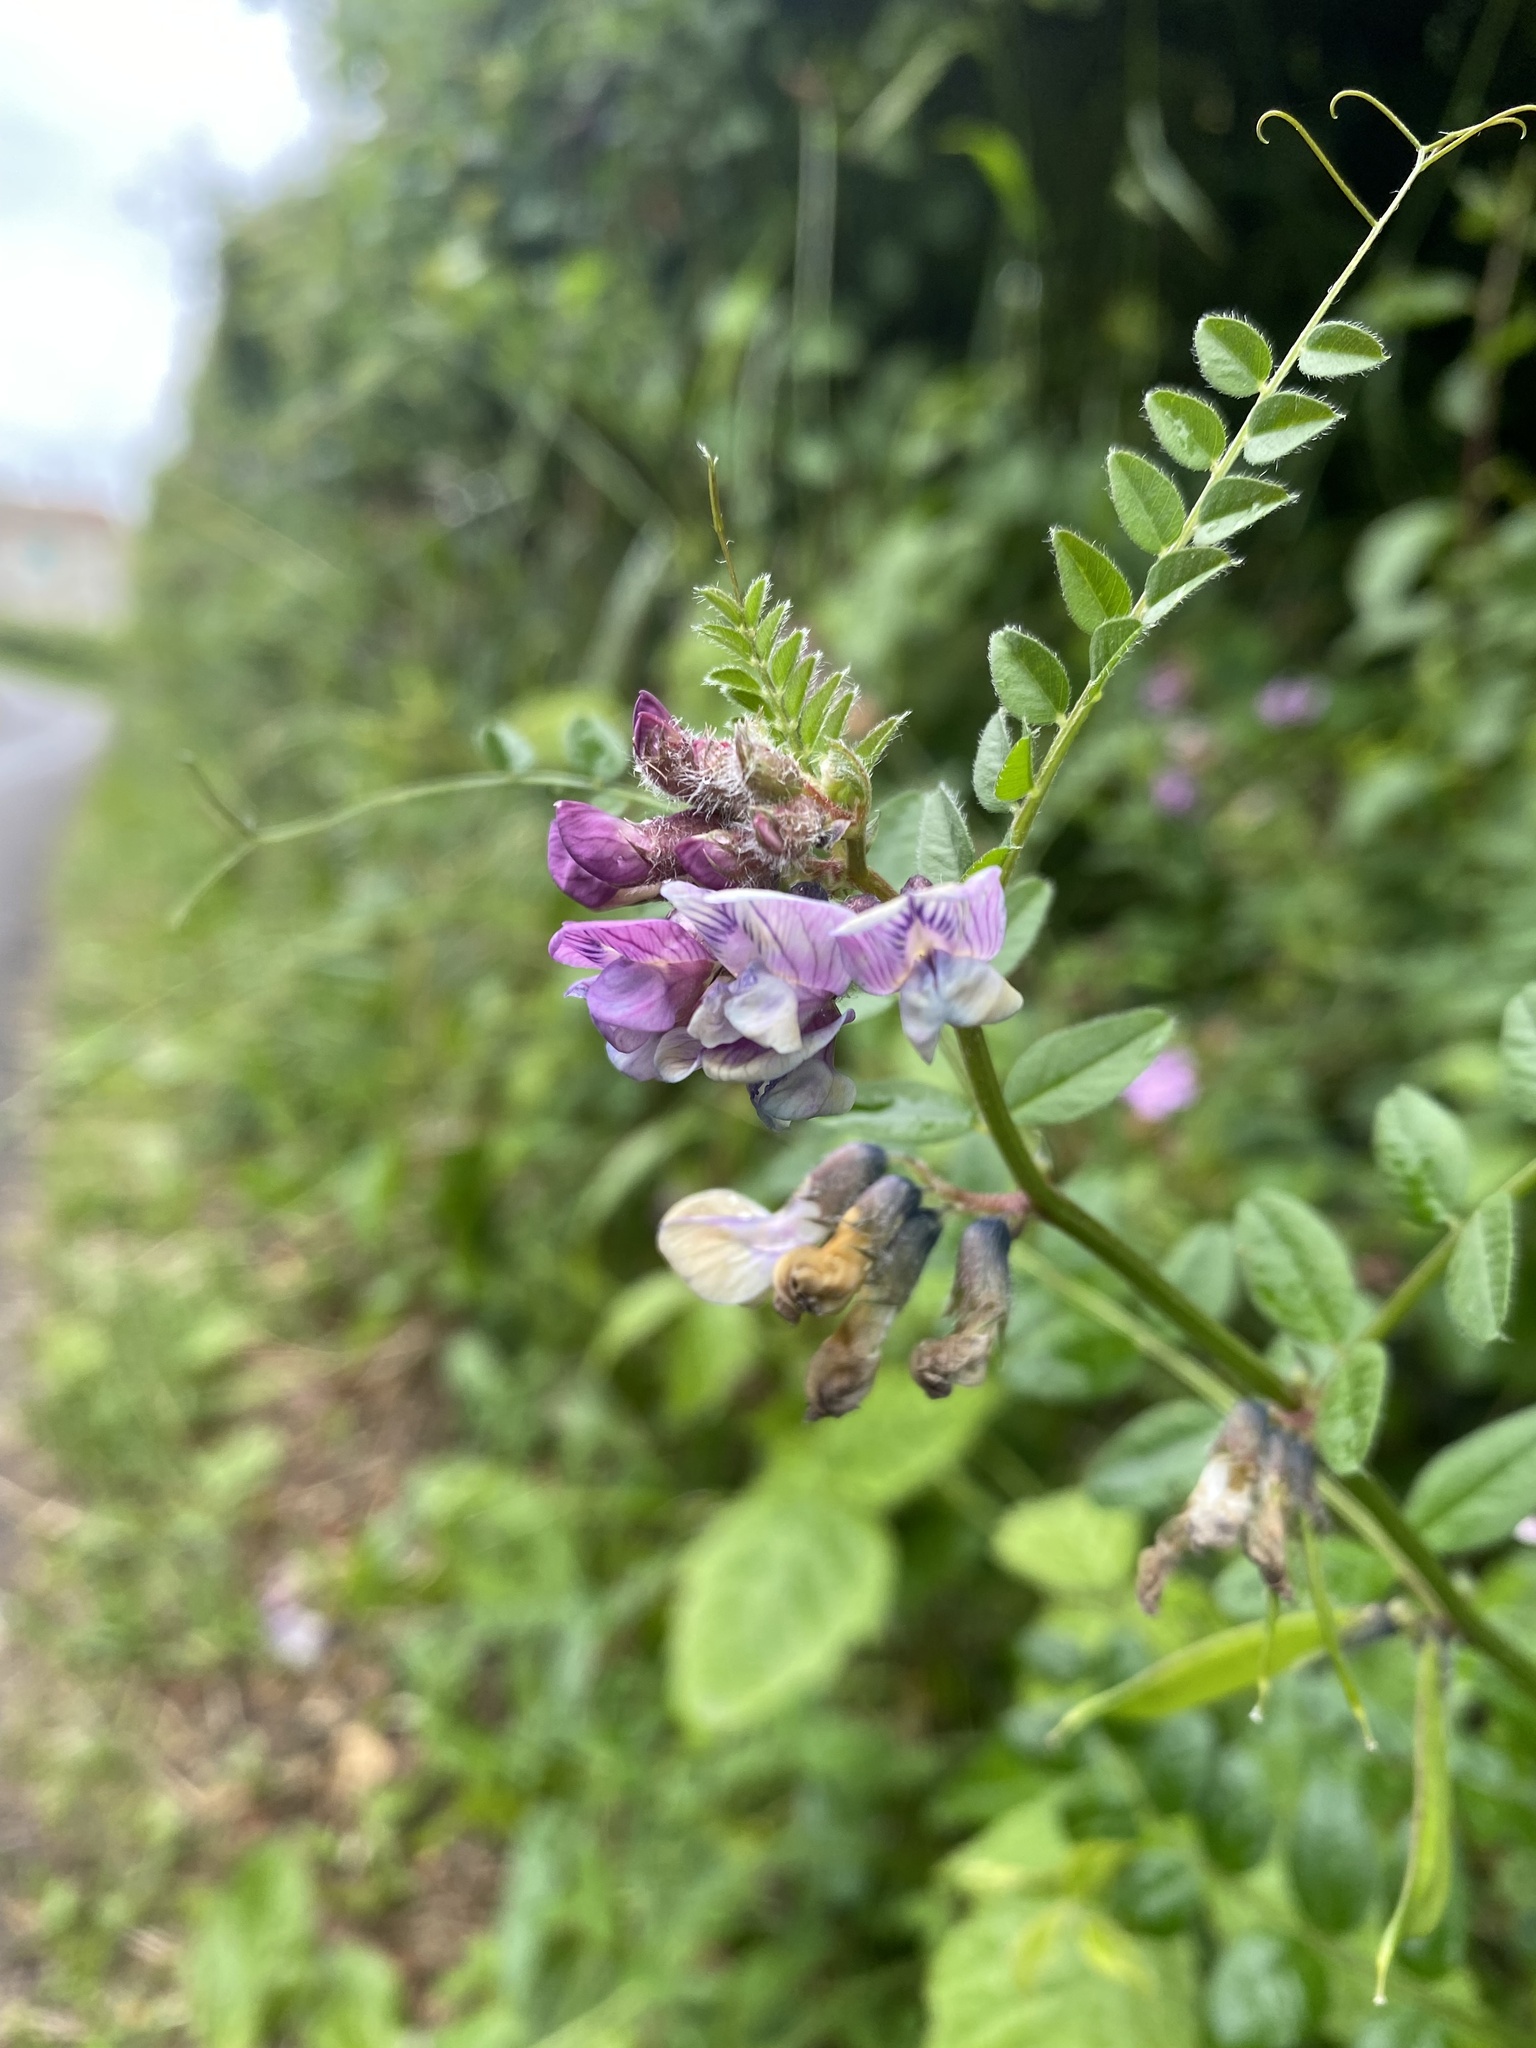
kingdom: Plantae
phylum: Tracheophyta
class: Magnoliopsida
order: Fabales
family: Fabaceae
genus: Vicia
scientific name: Vicia sepium
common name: Bush vetch
